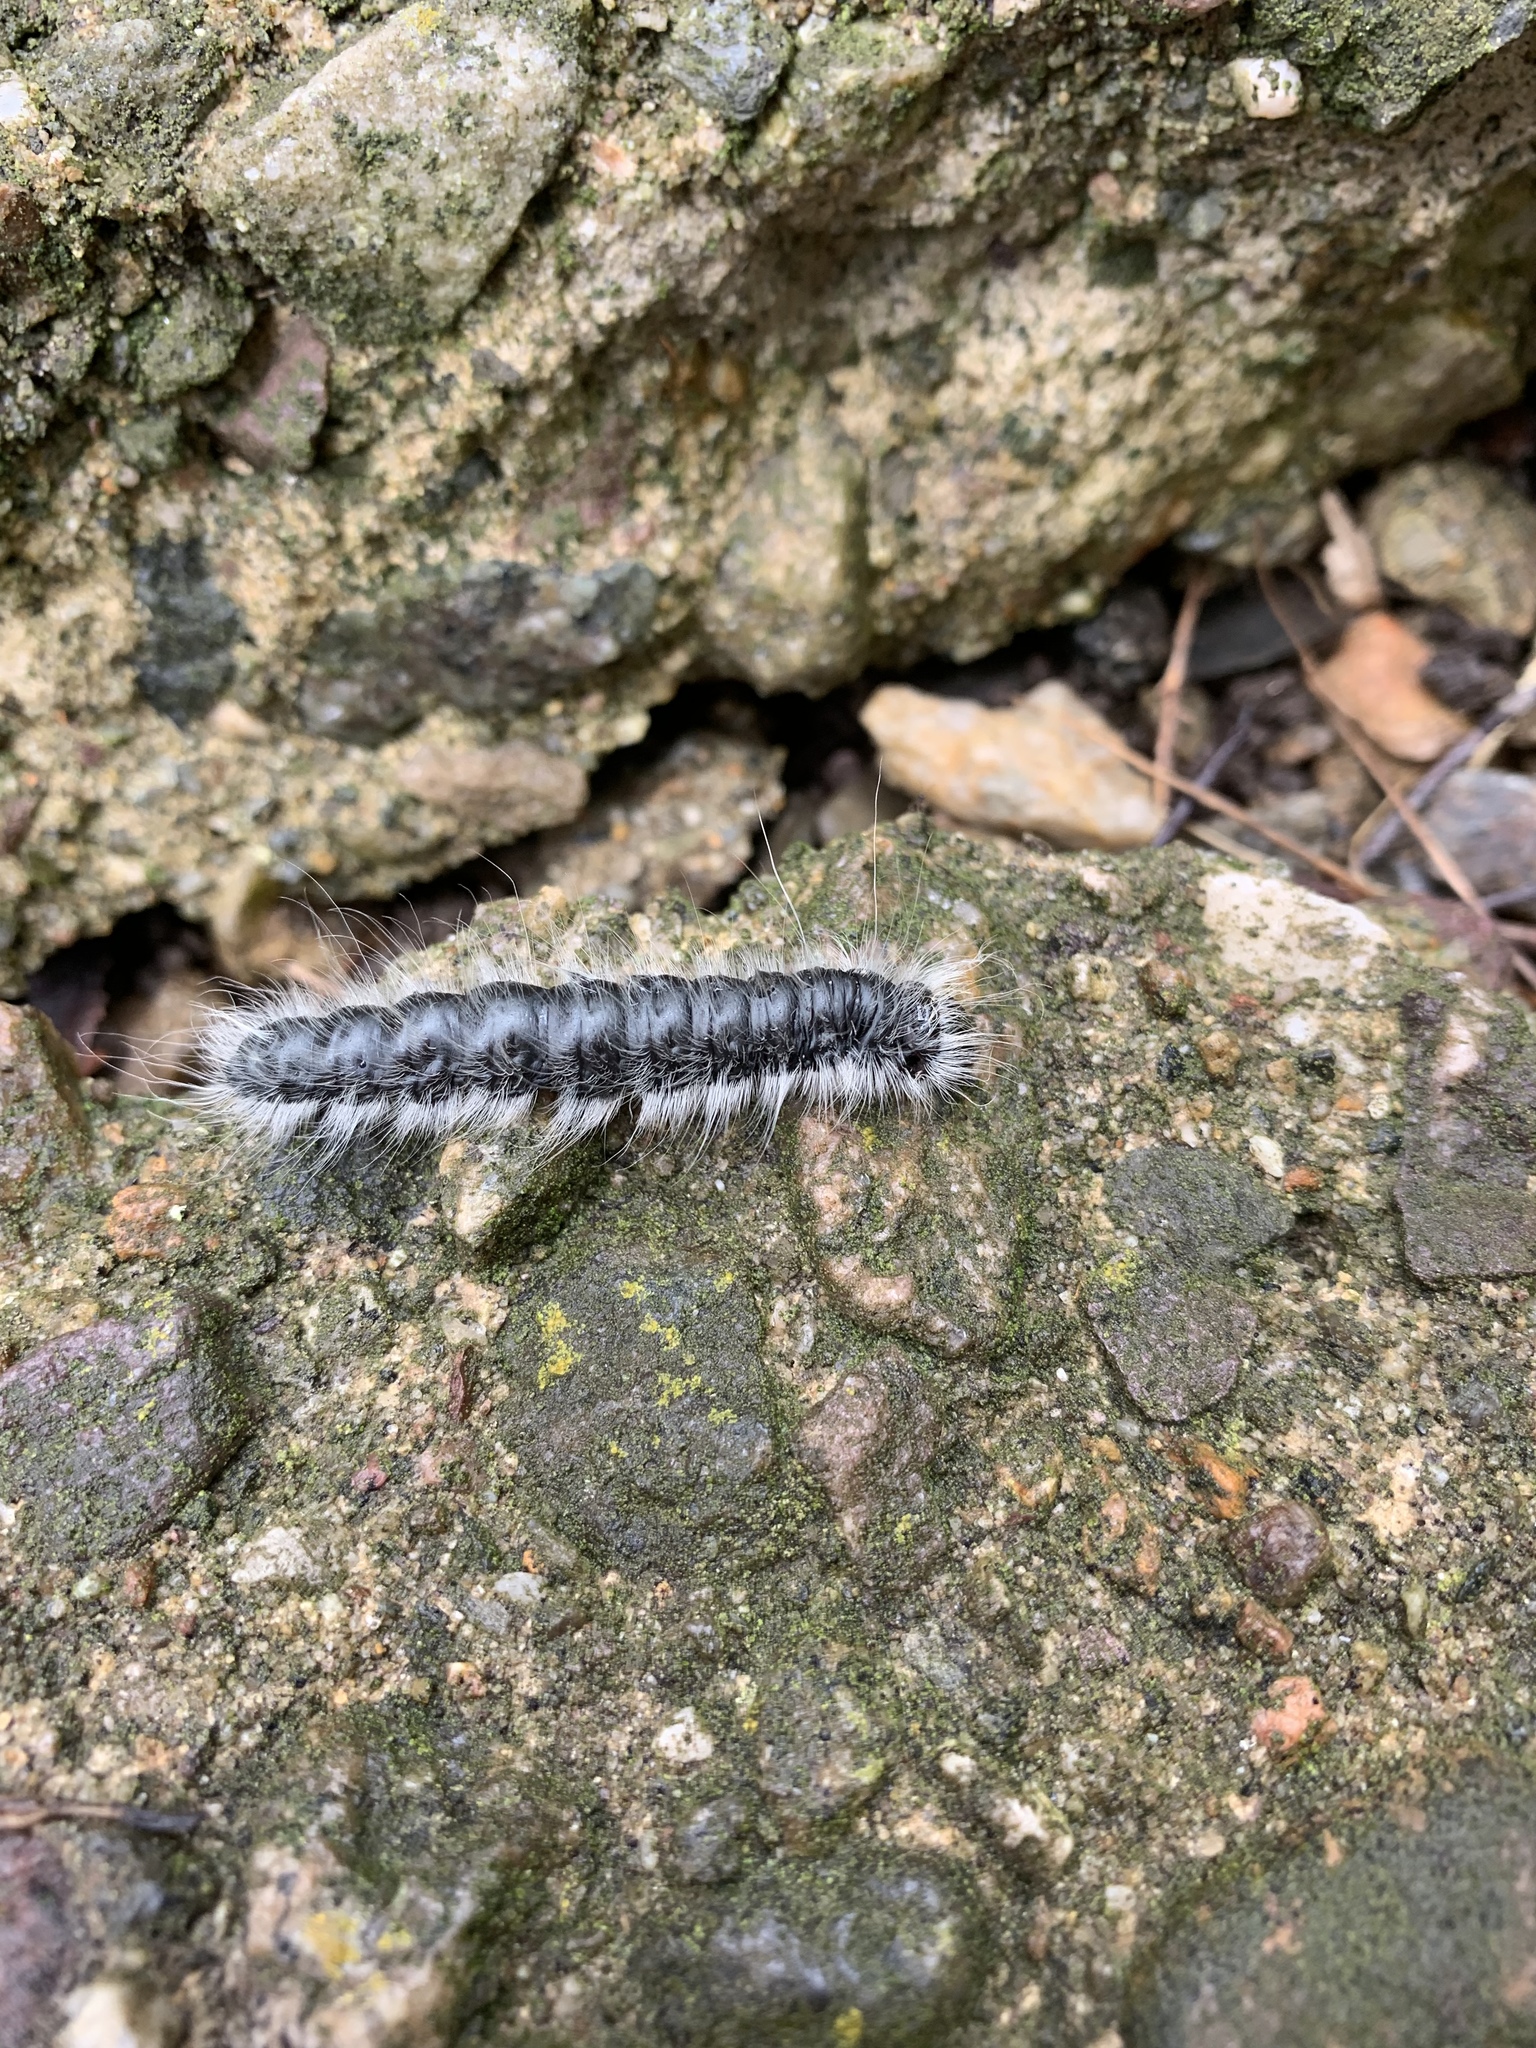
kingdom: Animalia
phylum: Arthropoda
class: Insecta
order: Lepidoptera
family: Notodontidae
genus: Datana
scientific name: Datana integerrima
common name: Walnut caterpillar
